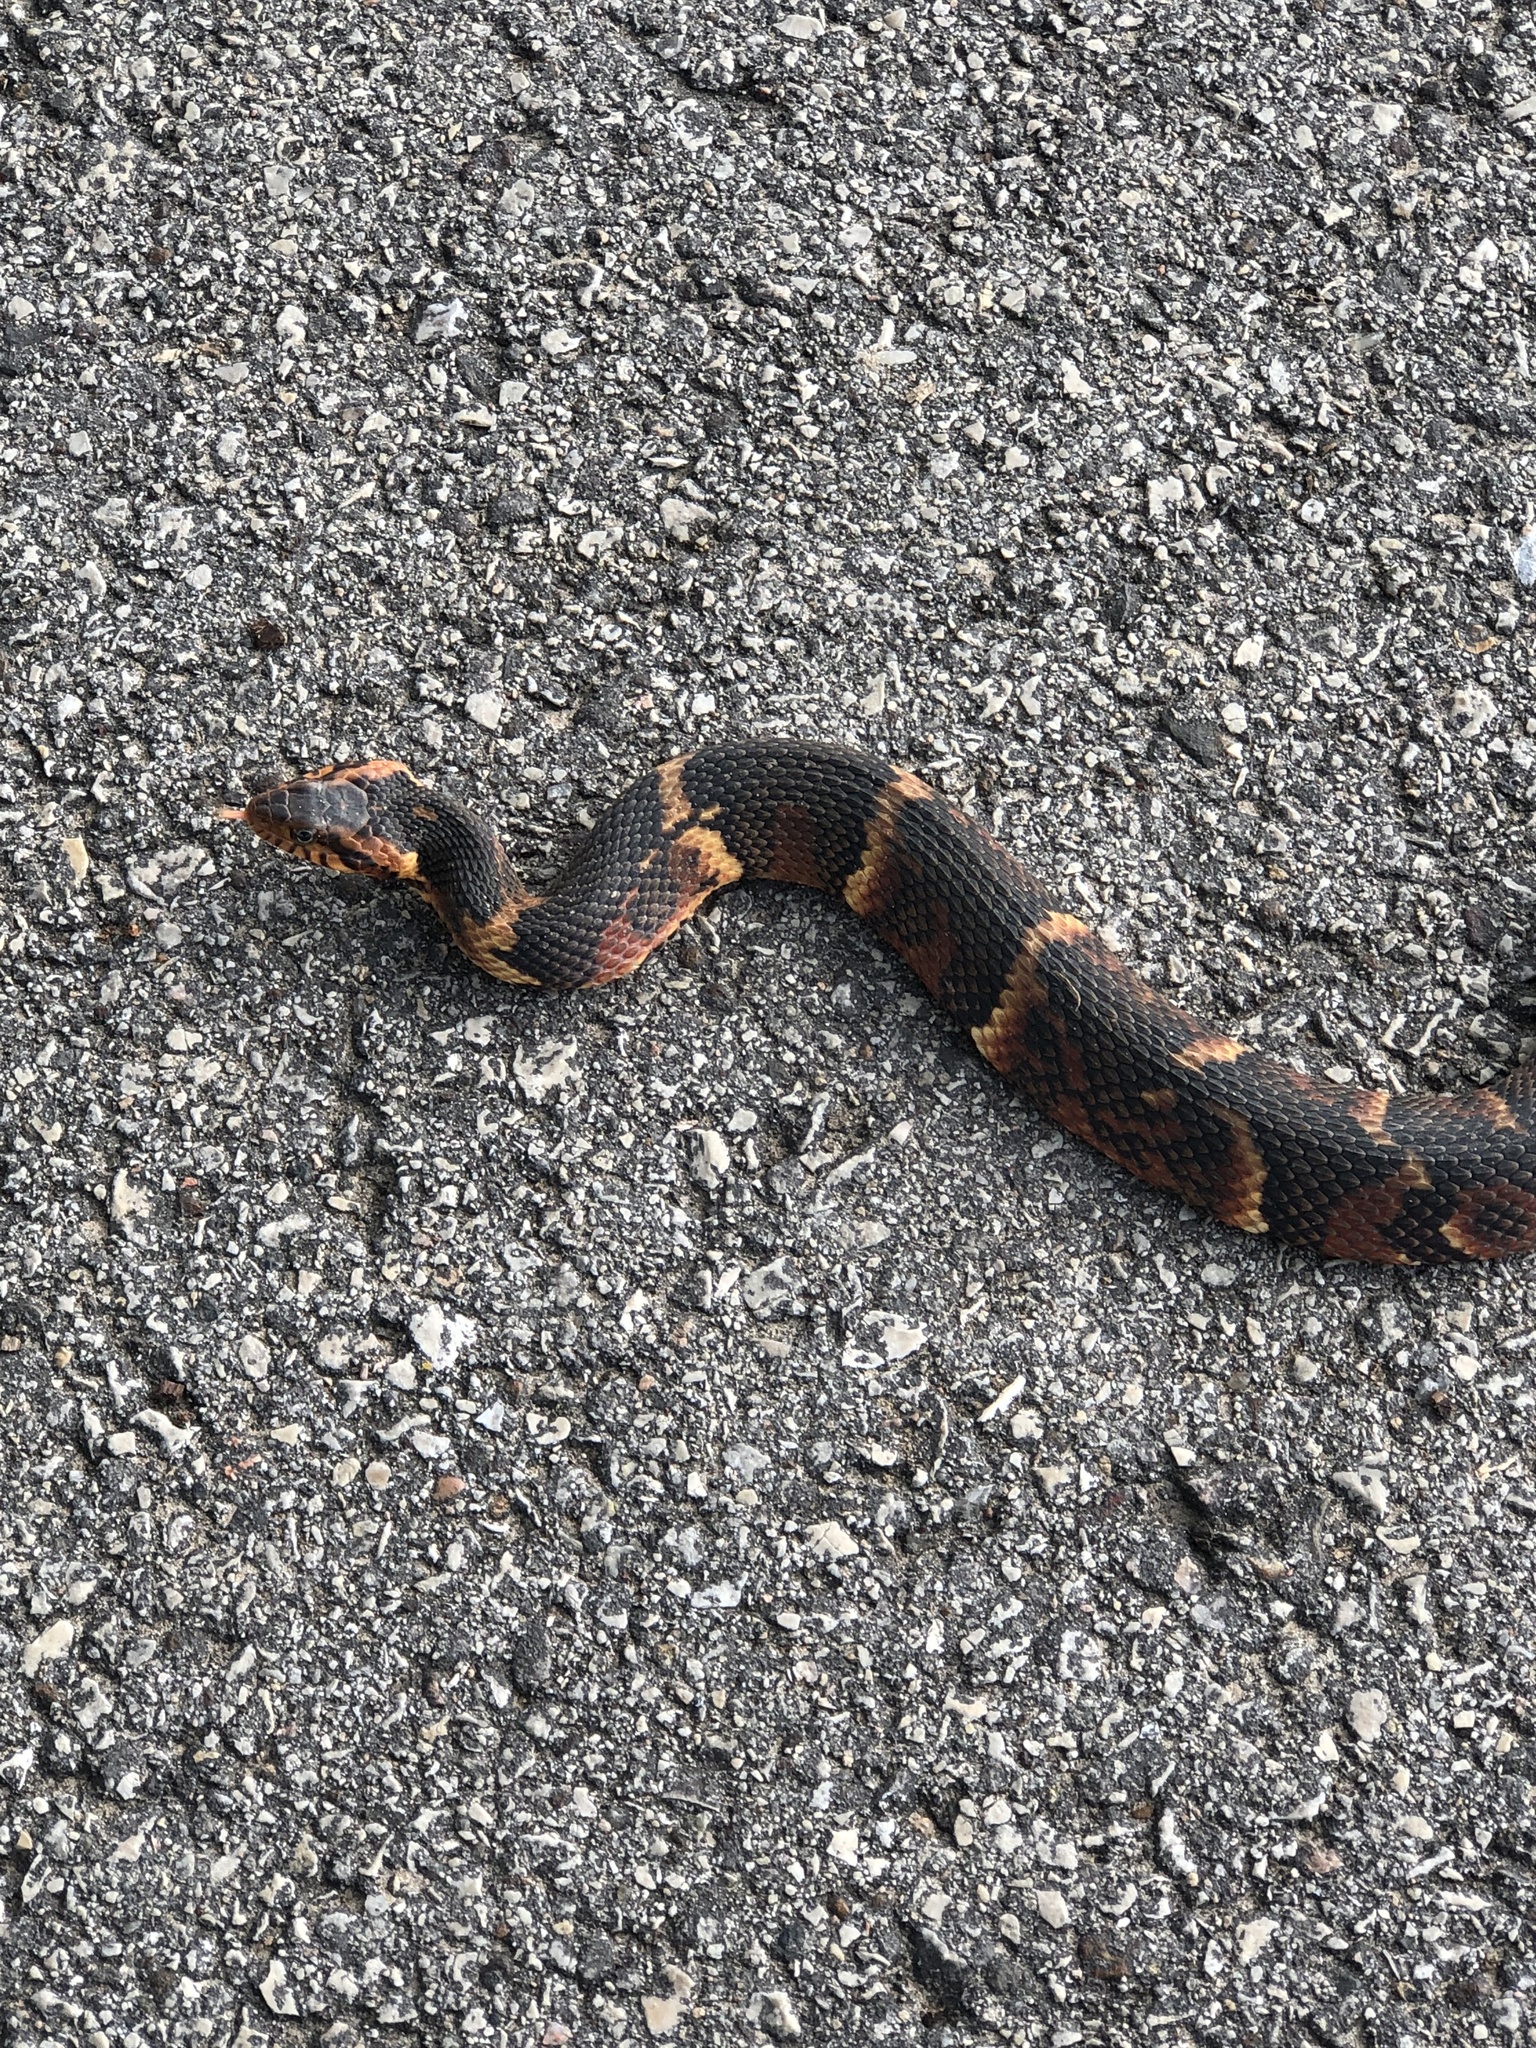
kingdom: Animalia
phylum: Chordata
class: Squamata
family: Colubridae
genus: Nerodia
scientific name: Nerodia fasciata
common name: Southern water snake
